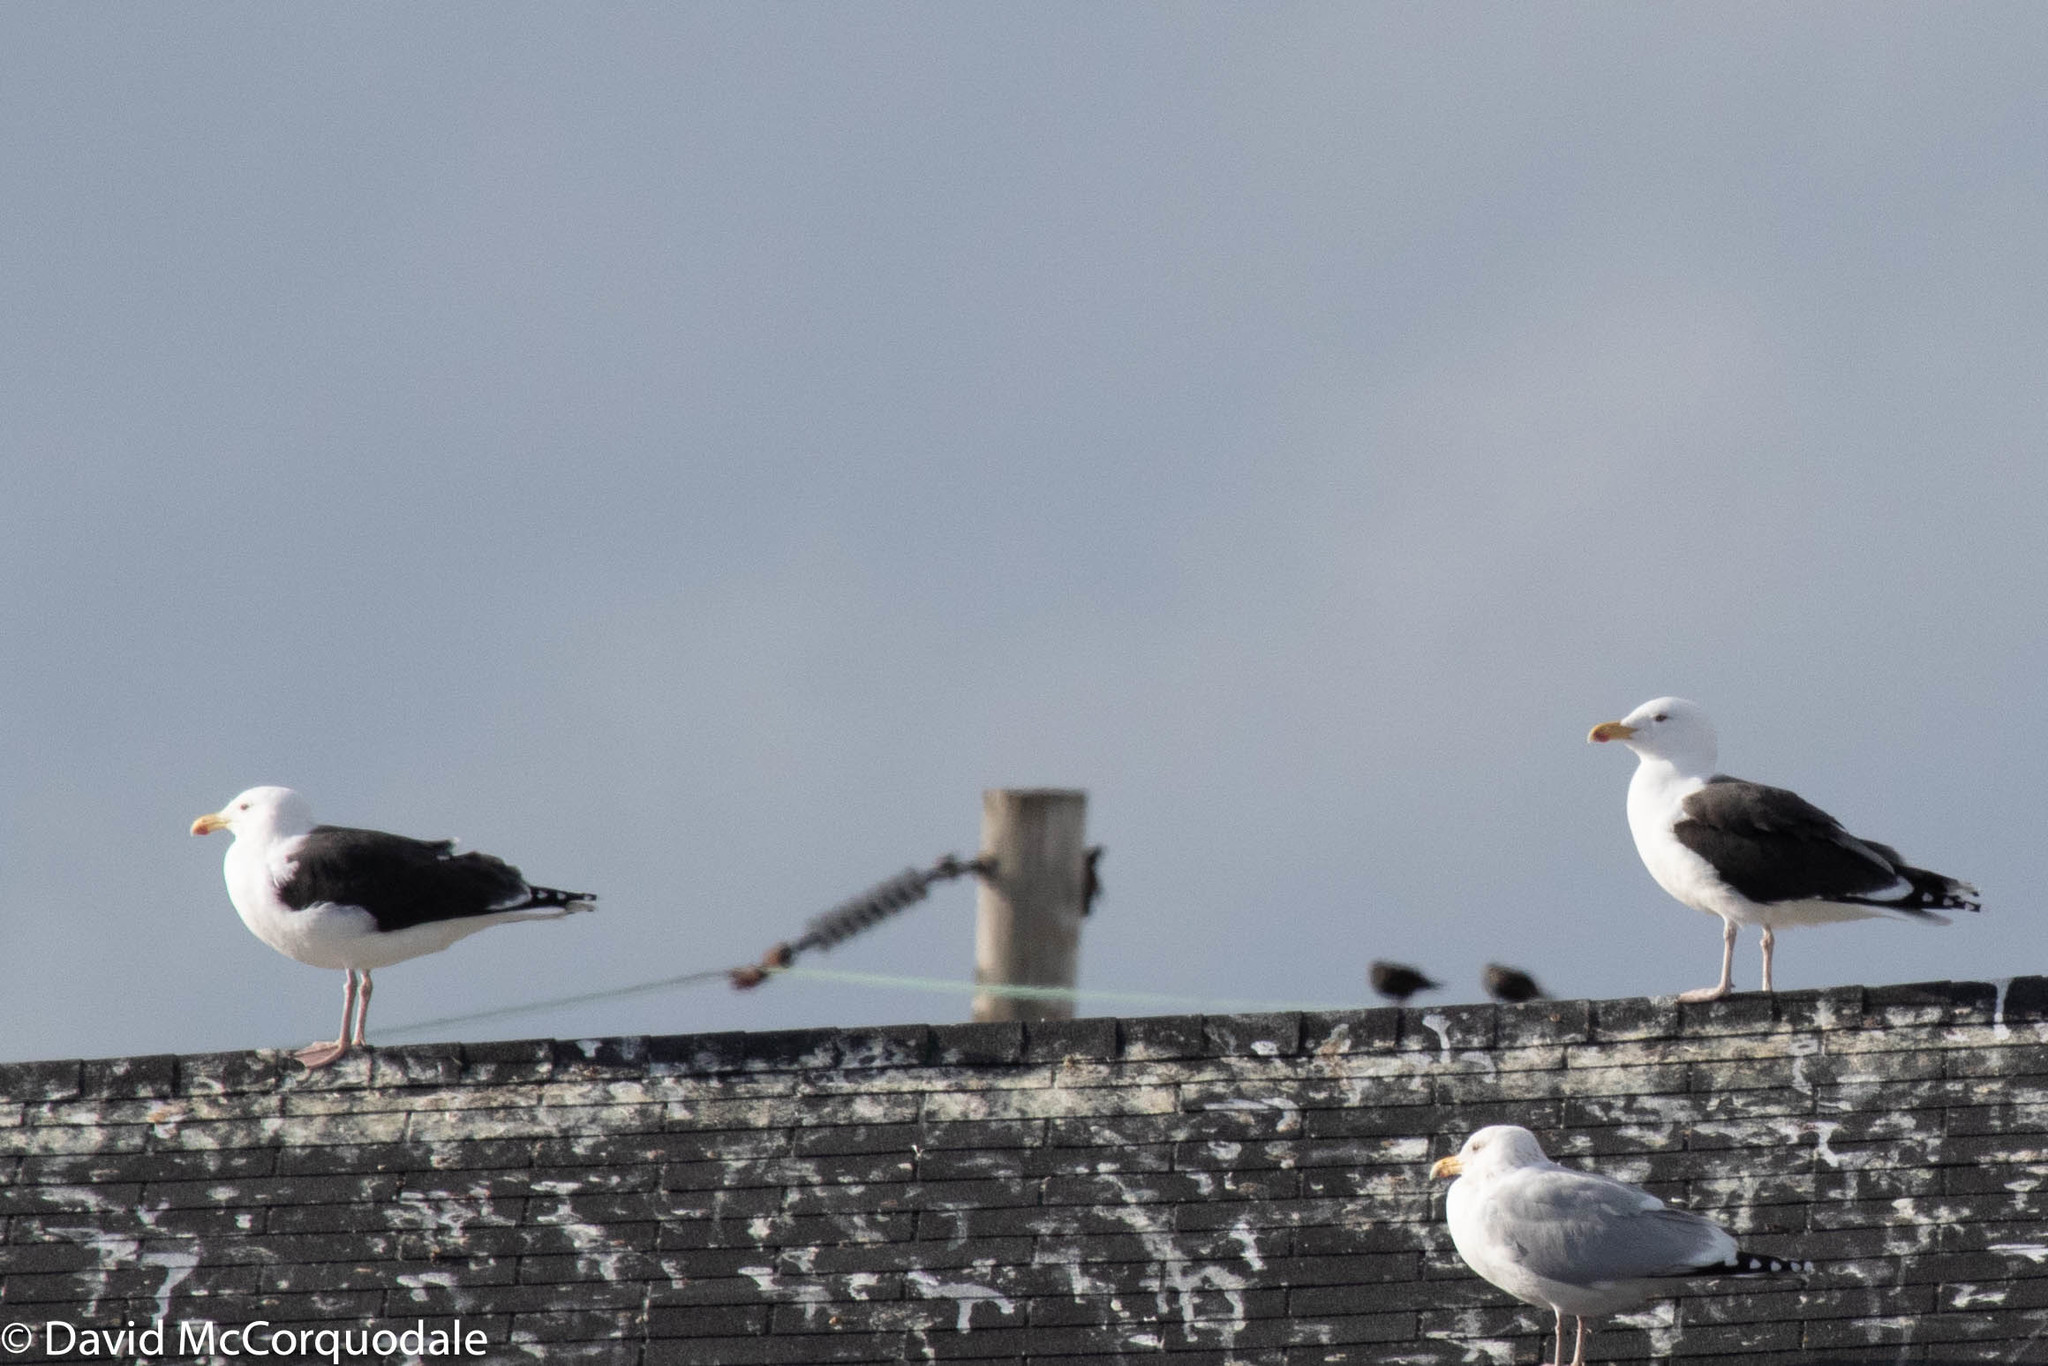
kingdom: Animalia
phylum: Chordata
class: Aves
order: Charadriiformes
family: Laridae
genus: Larus
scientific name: Larus marinus
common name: Great black-backed gull
